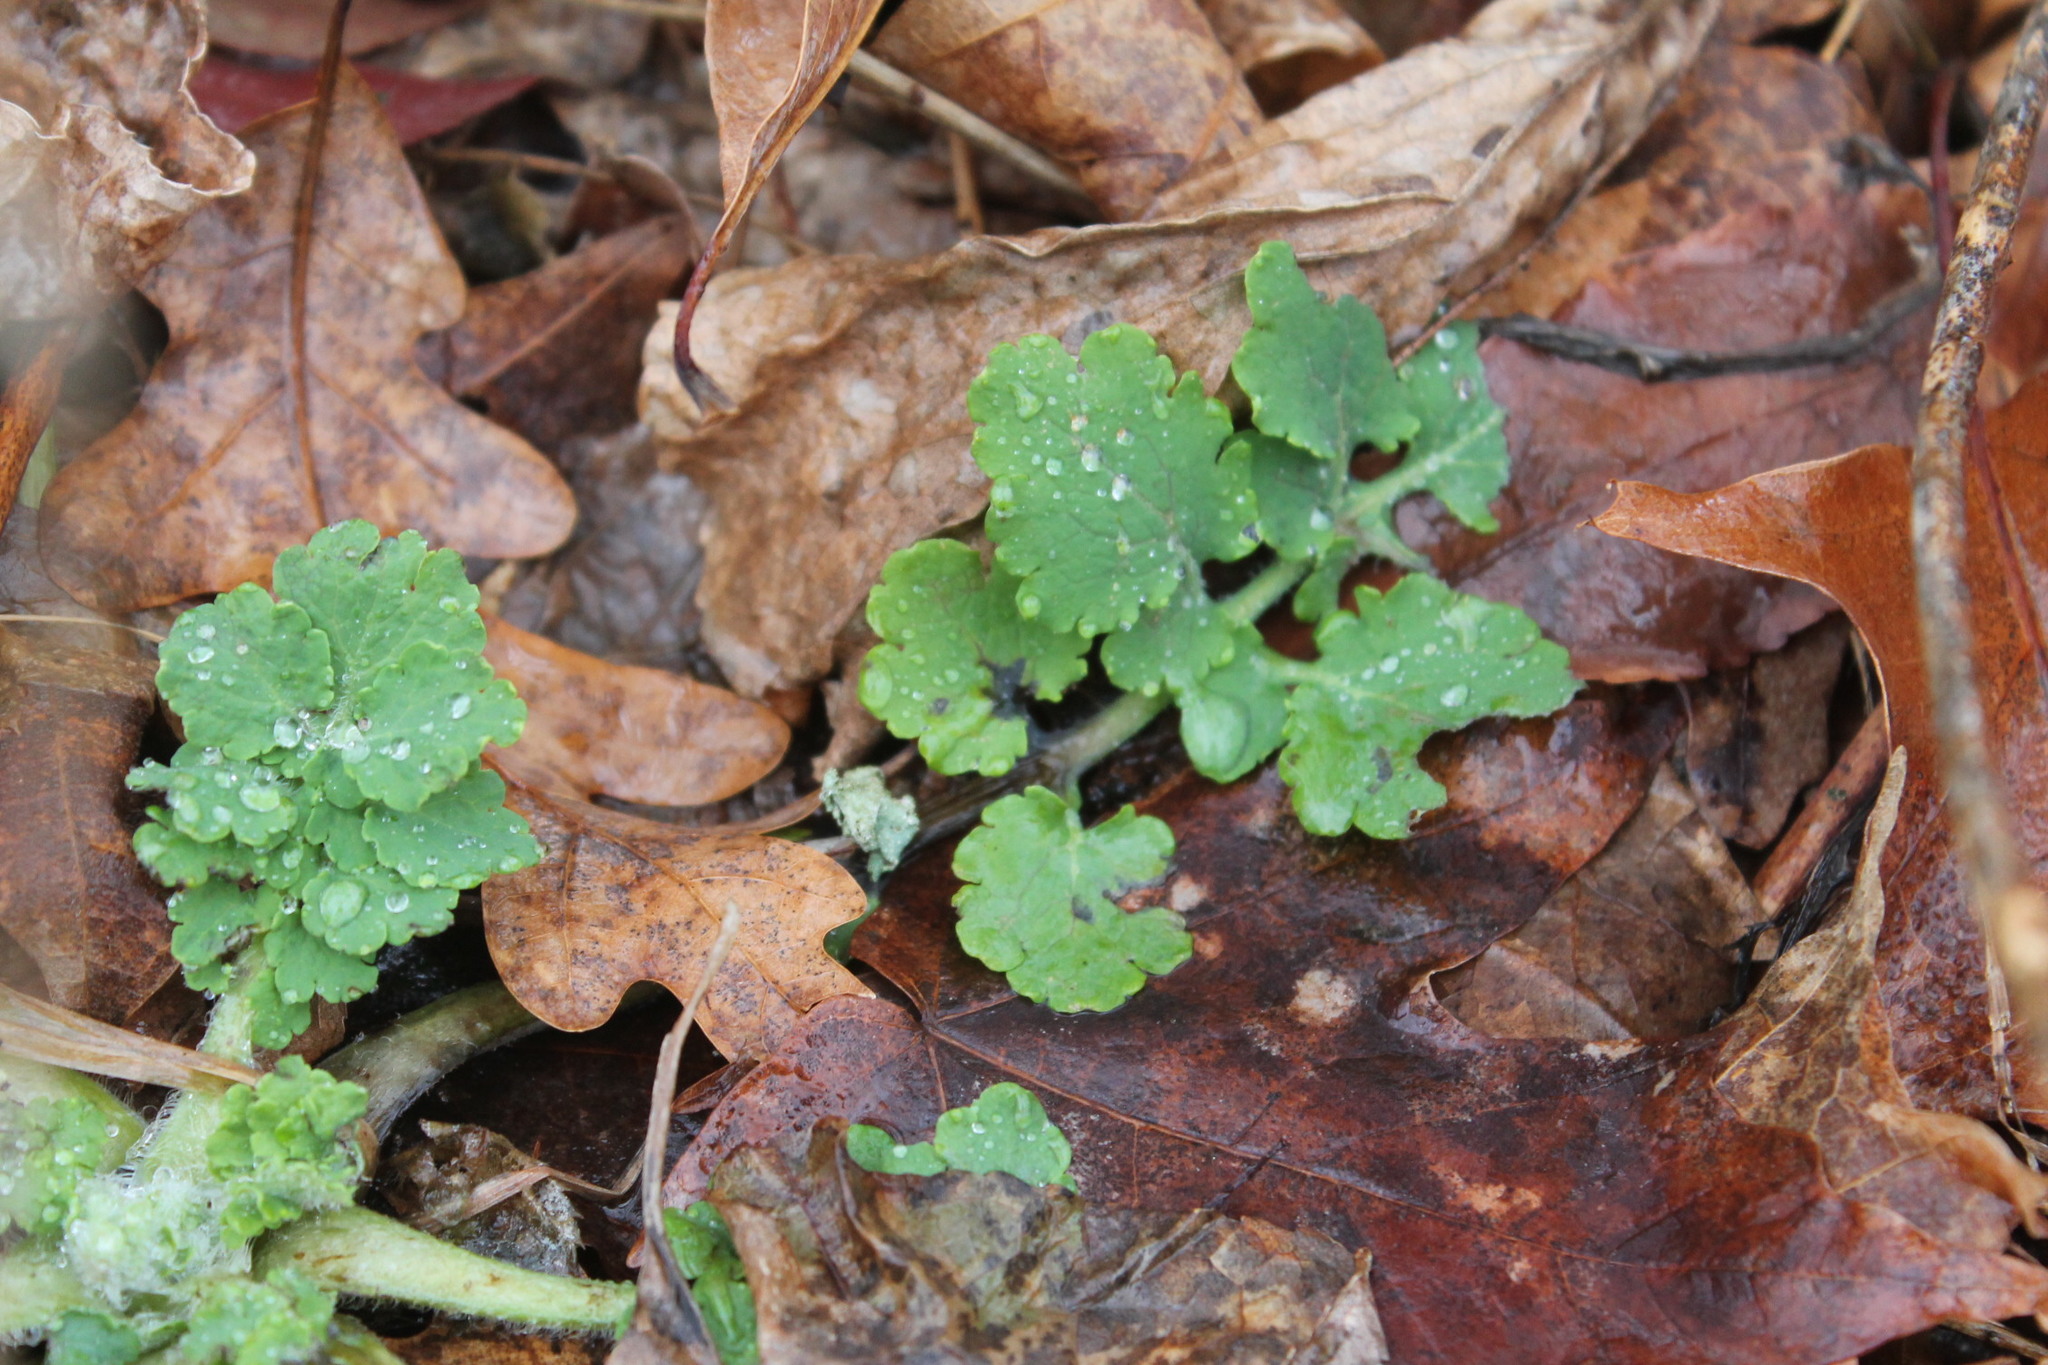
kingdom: Plantae
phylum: Tracheophyta
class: Magnoliopsida
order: Ranunculales
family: Papaveraceae
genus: Chelidonium
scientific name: Chelidonium majus
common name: Greater celandine
